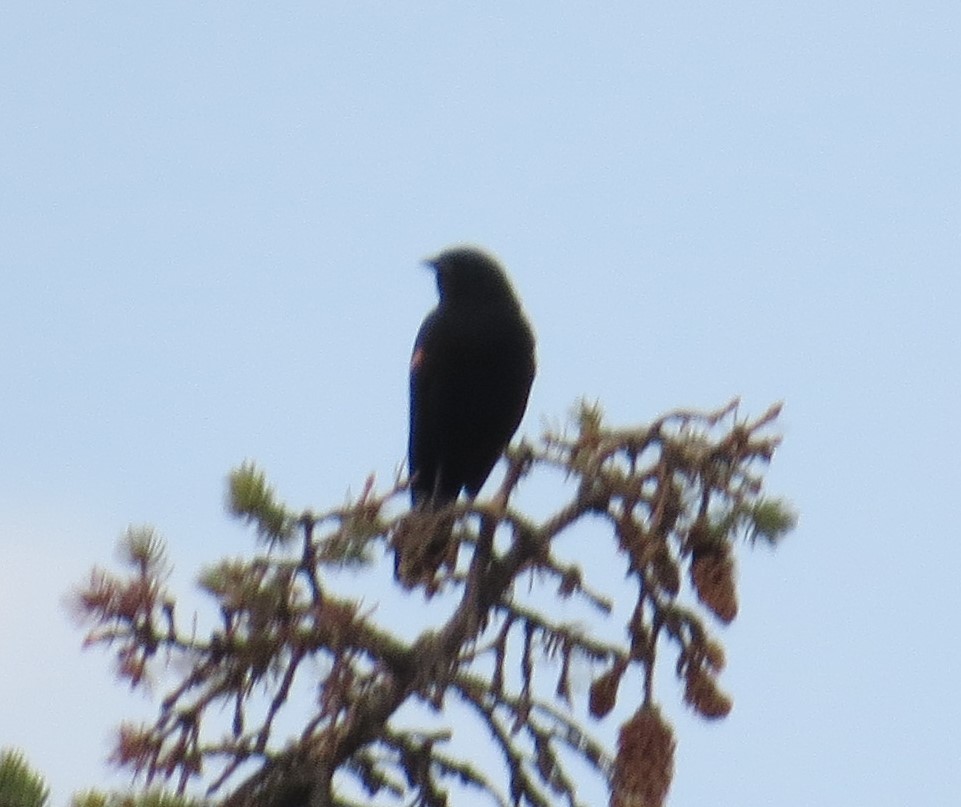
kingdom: Animalia
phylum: Chordata
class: Aves
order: Passeriformes
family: Icteridae
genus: Agelaius
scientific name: Agelaius phoeniceus
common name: Red-winged blackbird
